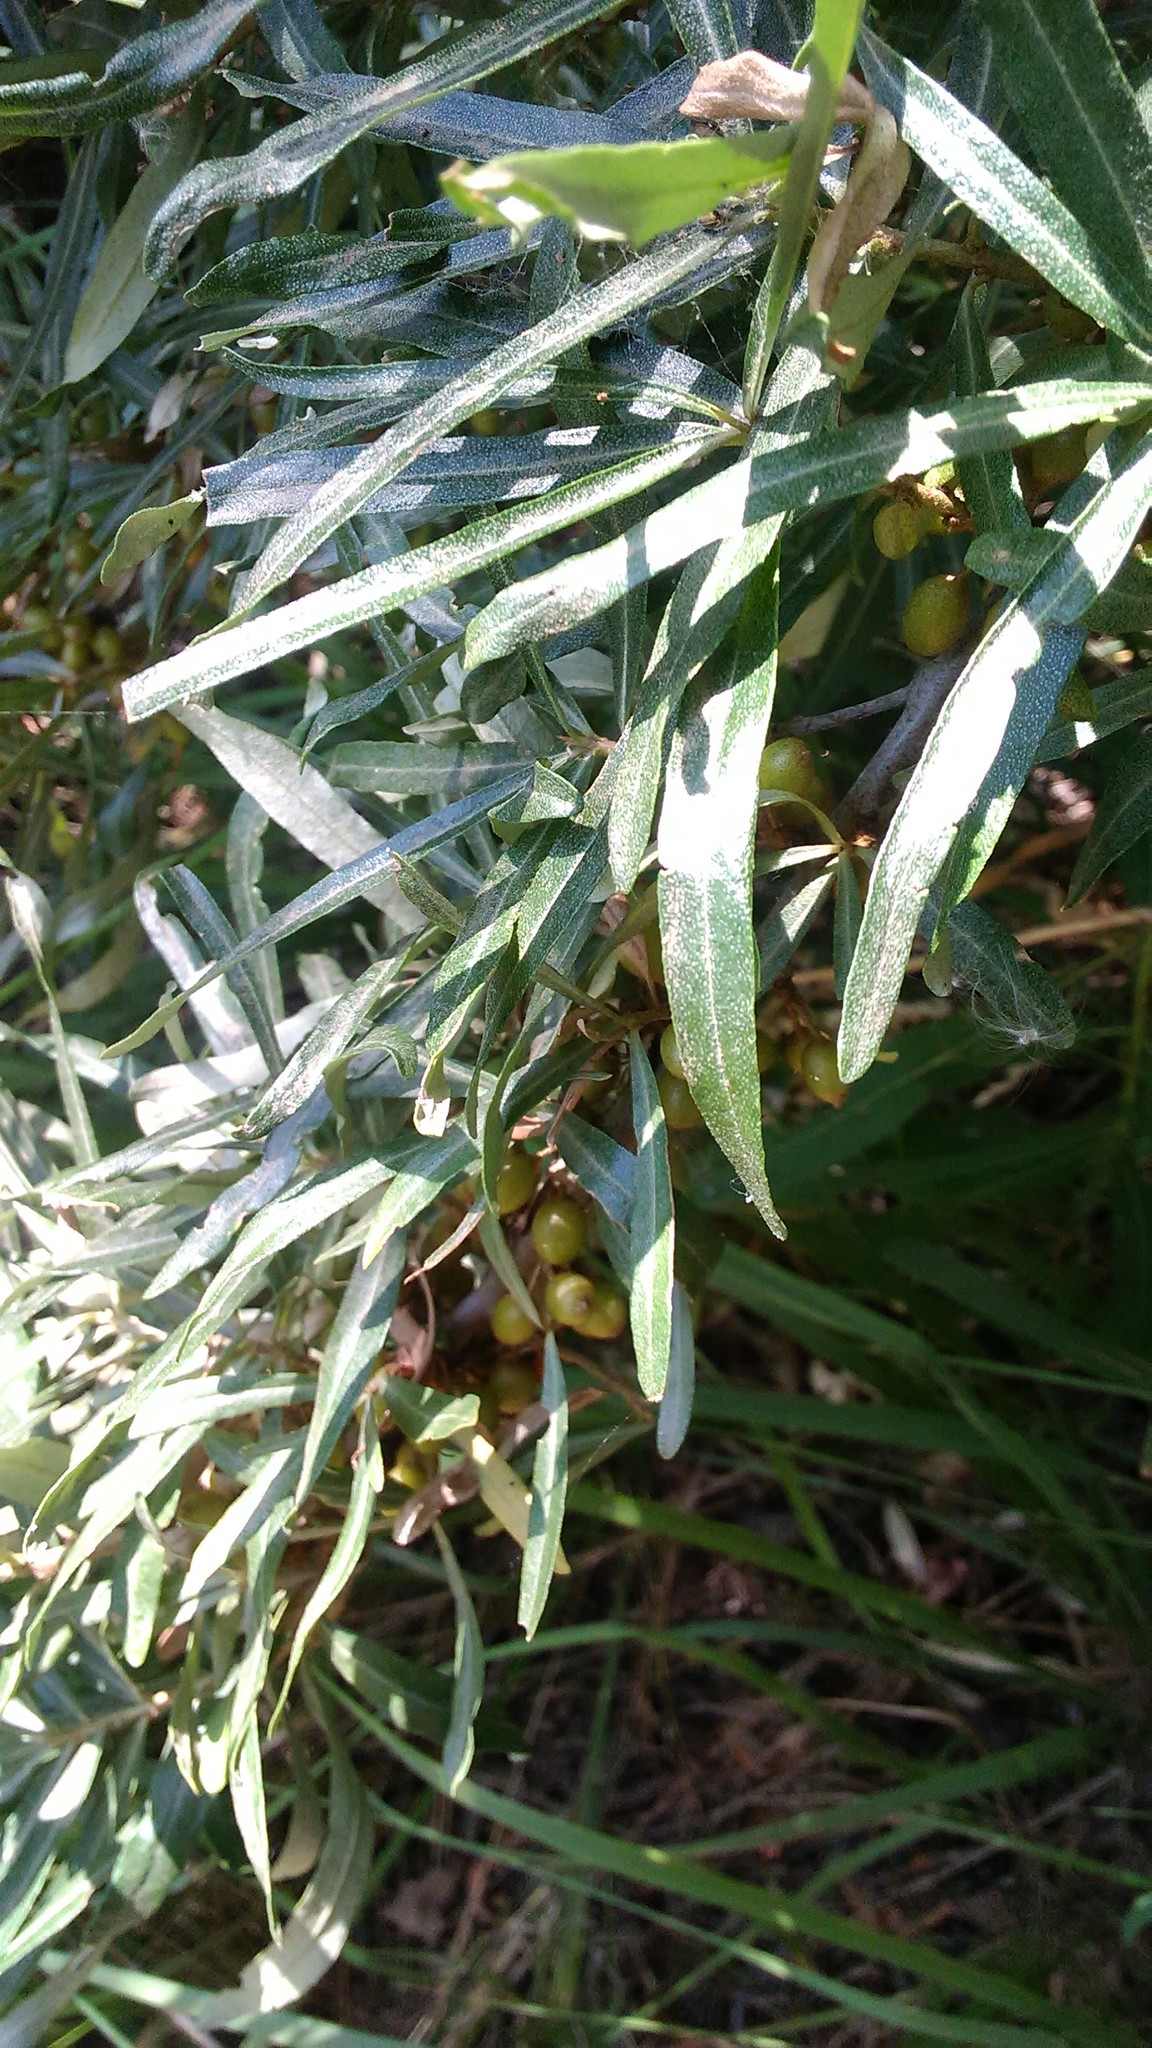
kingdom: Plantae
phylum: Tracheophyta
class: Magnoliopsida
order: Rosales
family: Elaeagnaceae
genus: Hippophae
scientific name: Hippophae rhamnoides
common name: Sea-buckthorn
